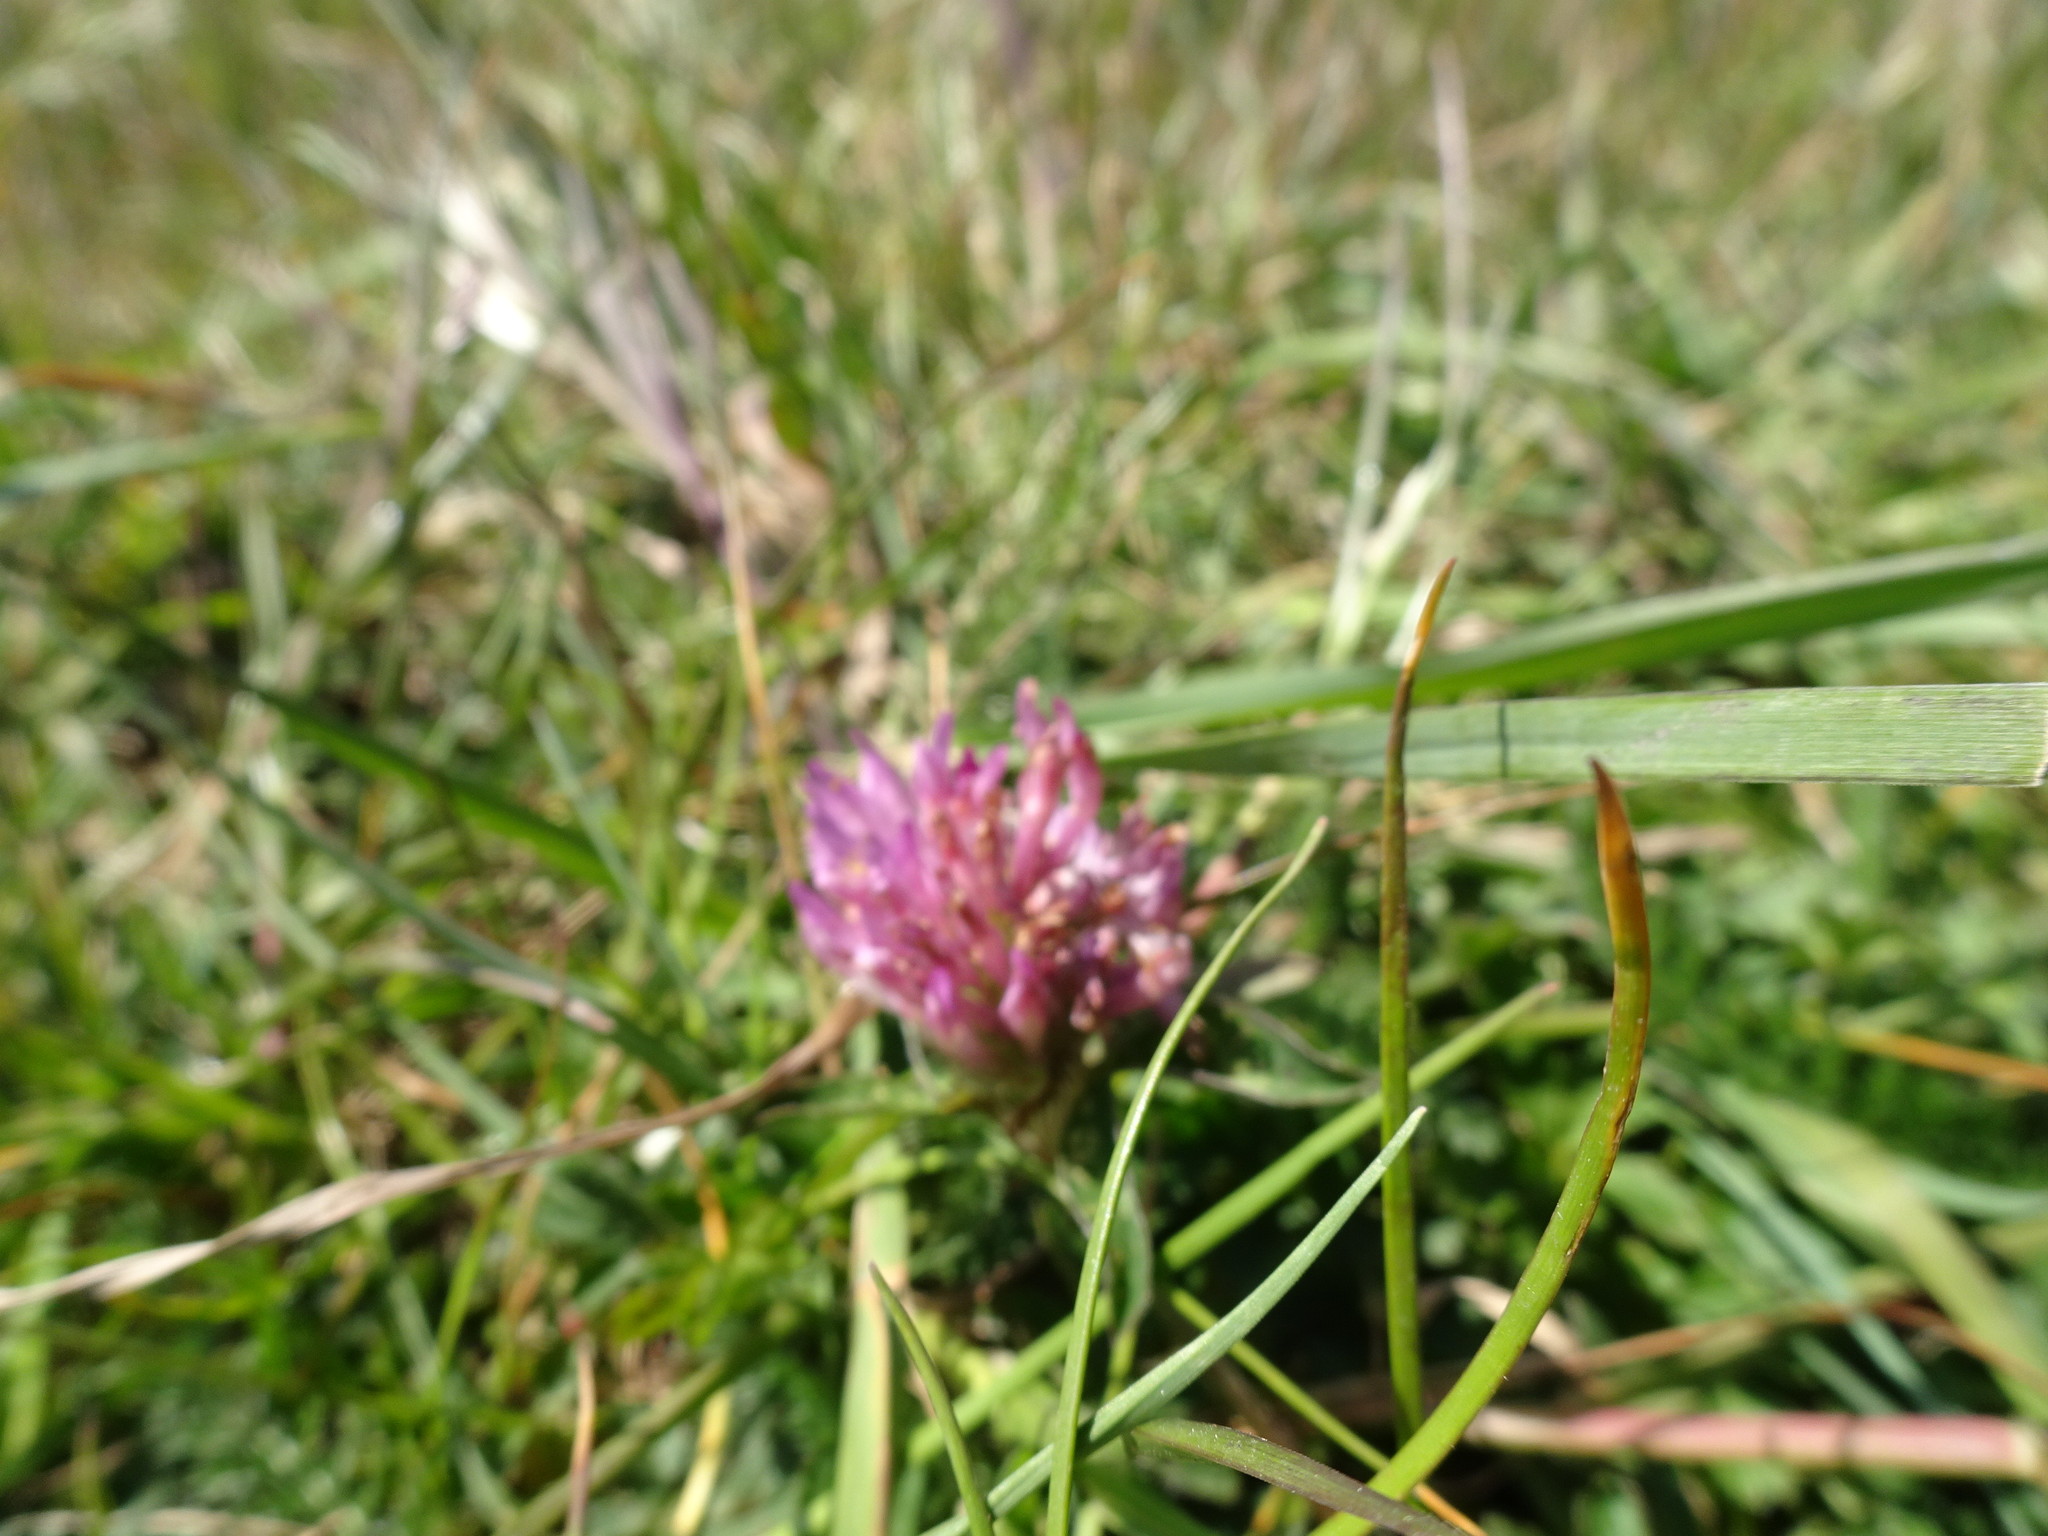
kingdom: Plantae
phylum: Tracheophyta
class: Magnoliopsida
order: Fabales
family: Fabaceae
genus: Trifolium
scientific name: Trifolium pratense
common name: Red clover
